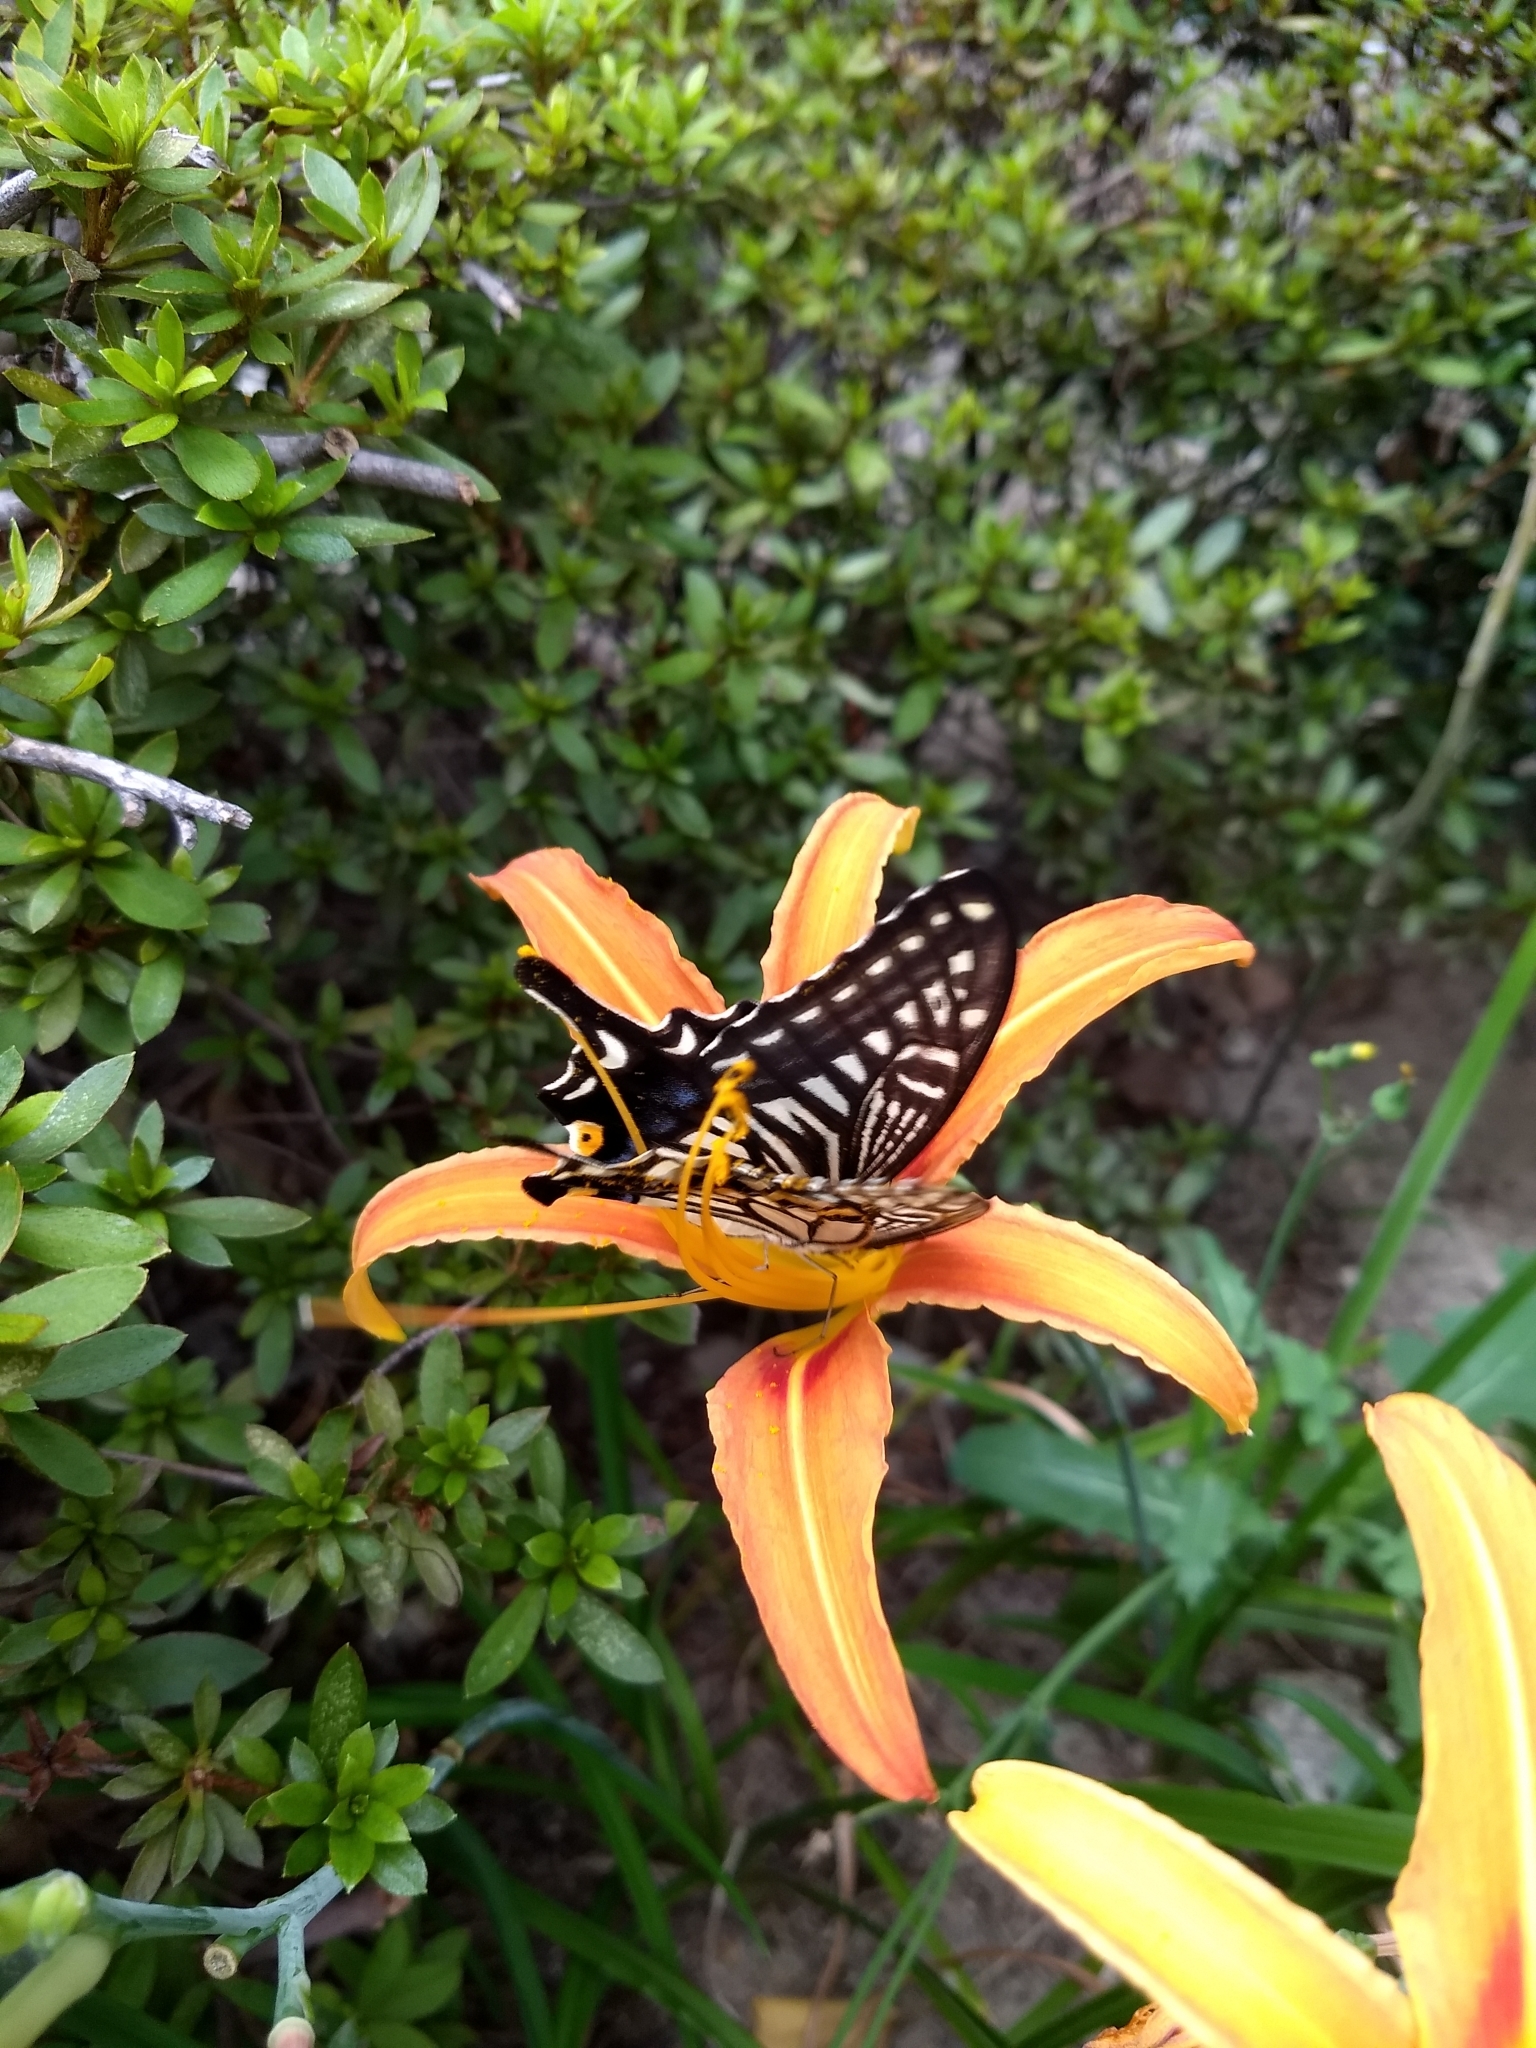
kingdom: Animalia
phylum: Arthropoda
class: Insecta
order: Lepidoptera
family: Papilionidae
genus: Papilio
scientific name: Papilio xuthus
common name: Asian swallowtail
